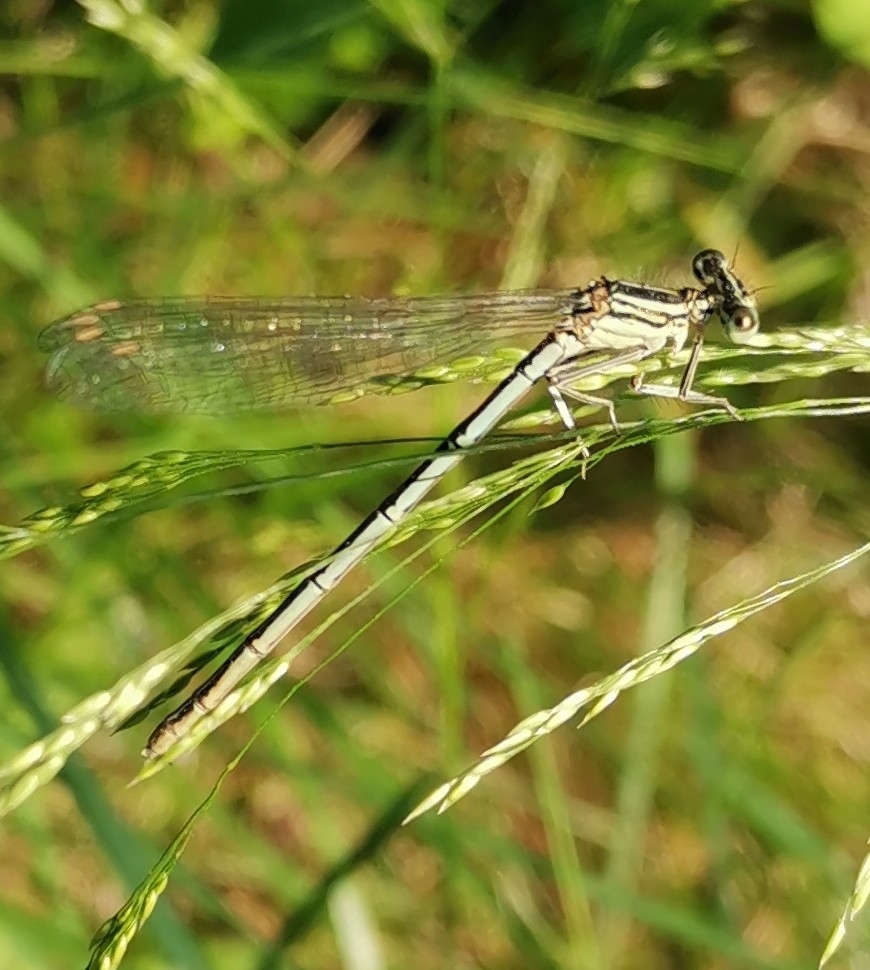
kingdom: Animalia
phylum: Arthropoda
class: Insecta
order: Odonata
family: Platycnemididae
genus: Platycnemis
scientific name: Platycnemis pennipes
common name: White-legged damselfly
